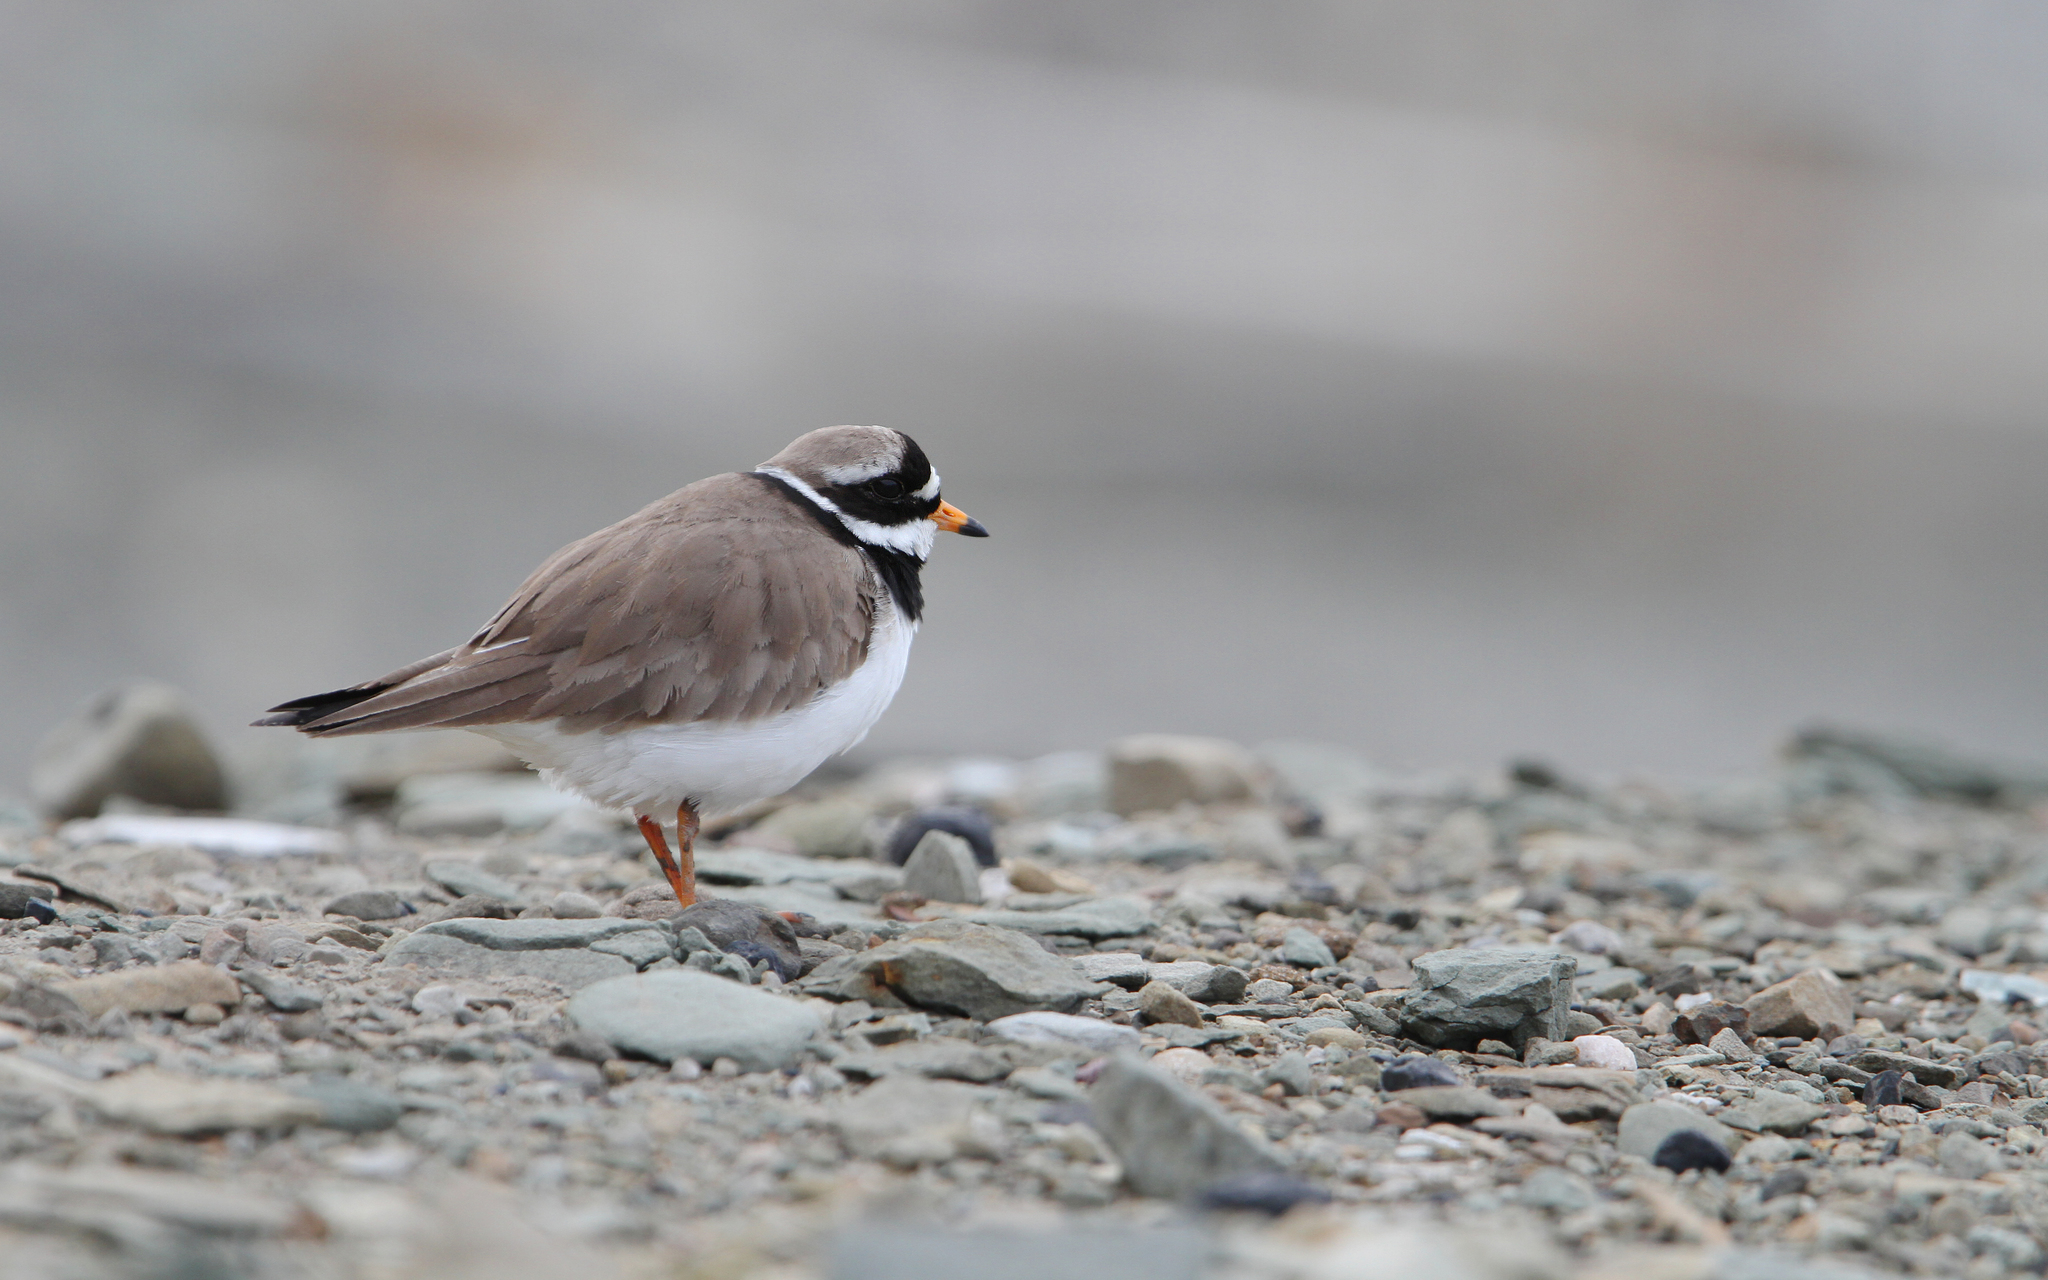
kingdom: Animalia
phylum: Chordata
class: Aves
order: Charadriiformes
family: Charadriidae
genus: Charadrius
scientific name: Charadrius hiaticula
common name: Common ringed plover
